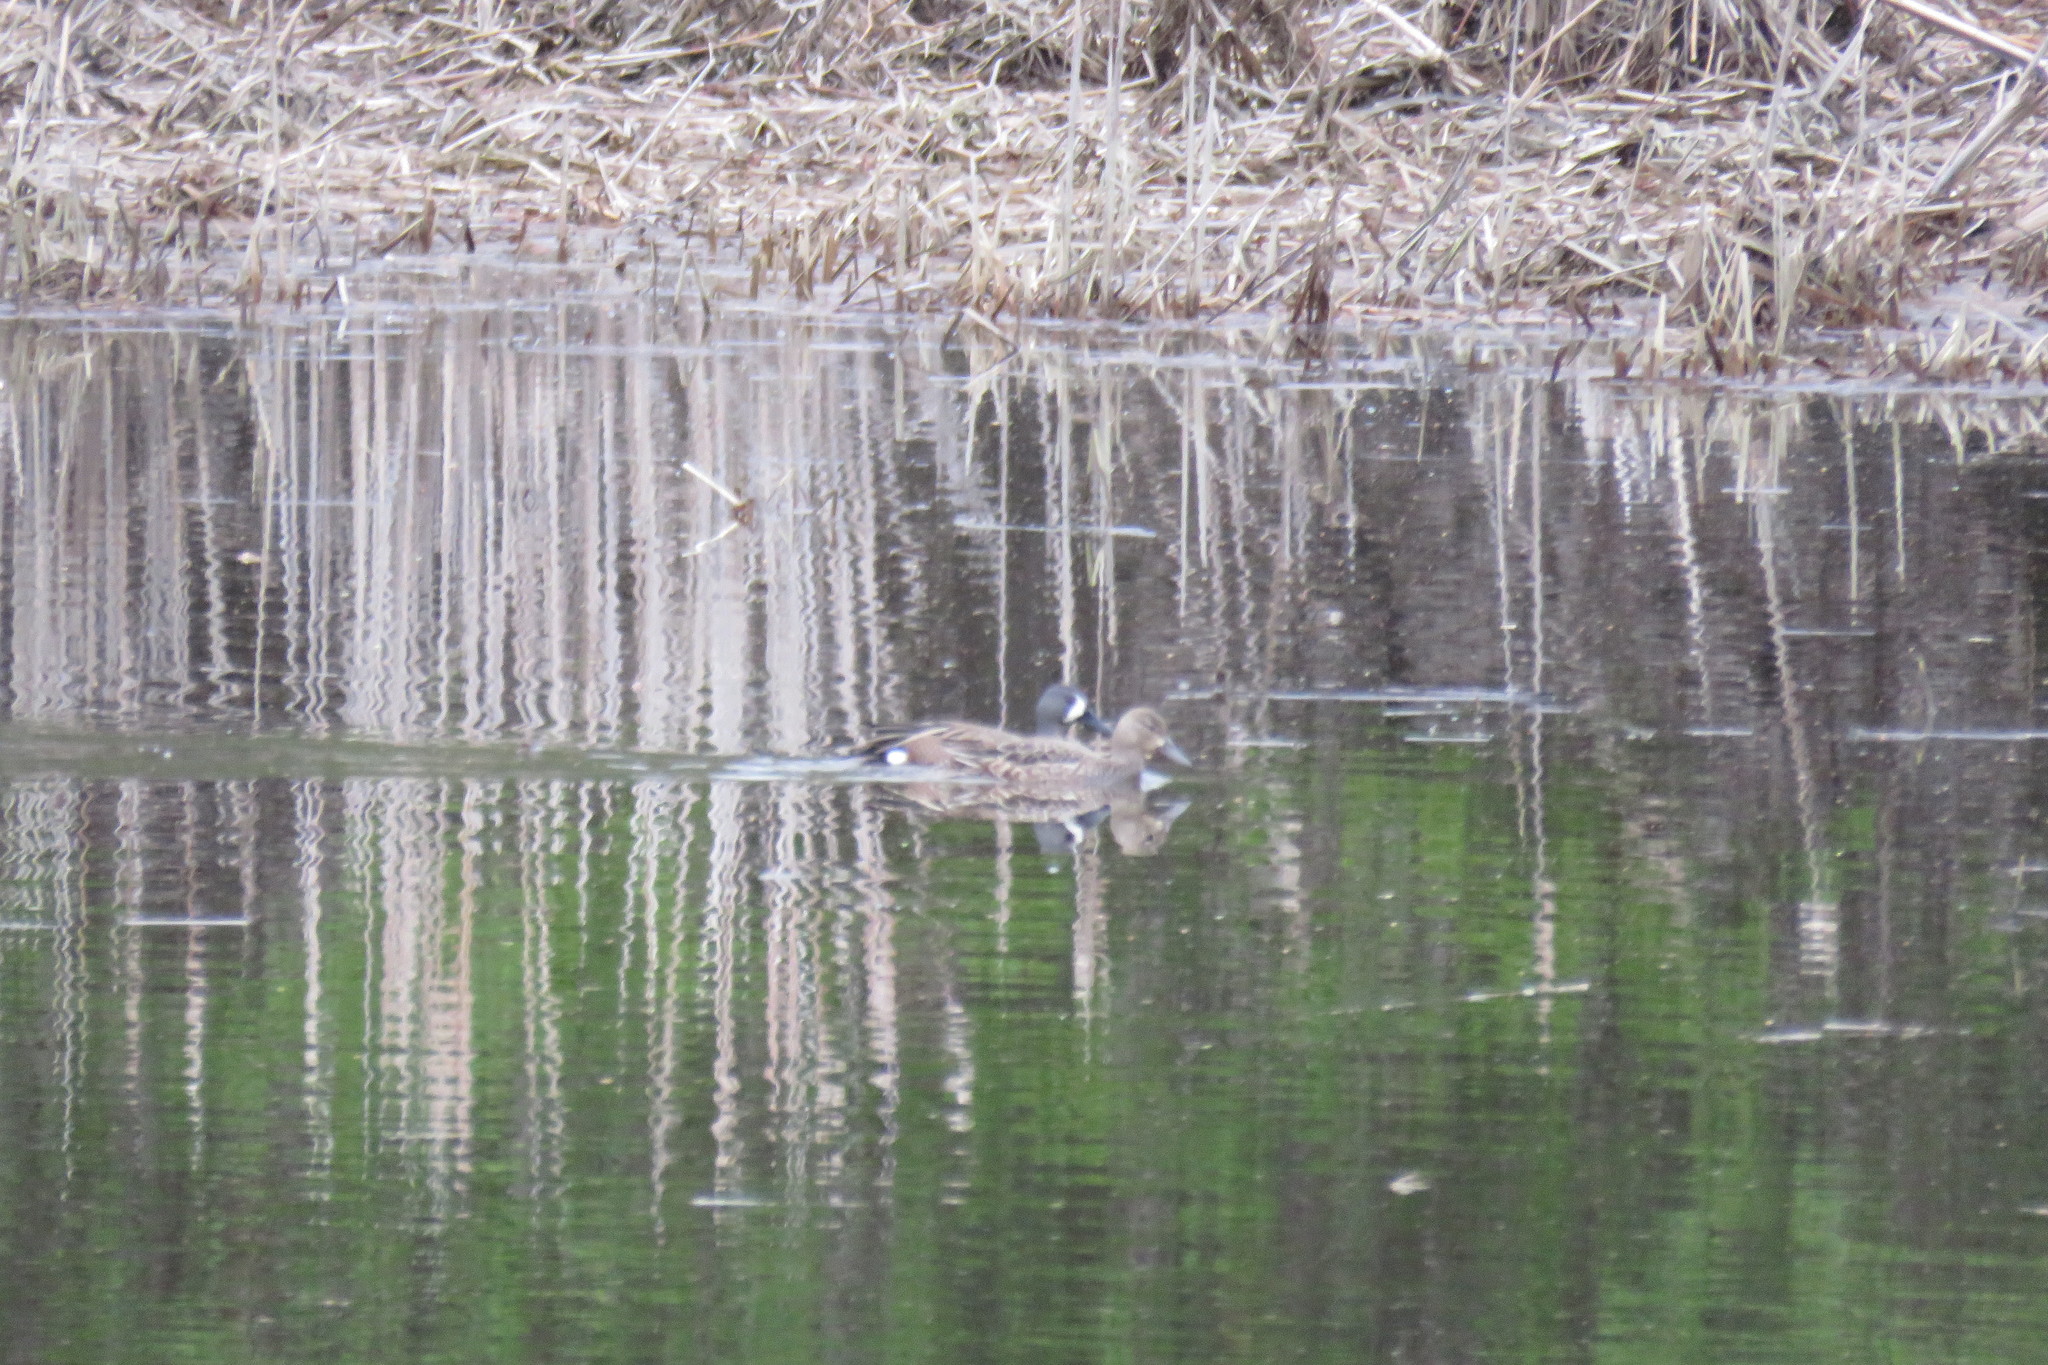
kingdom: Animalia
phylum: Chordata
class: Aves
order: Anseriformes
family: Anatidae
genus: Spatula
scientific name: Spatula discors
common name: Blue-winged teal
